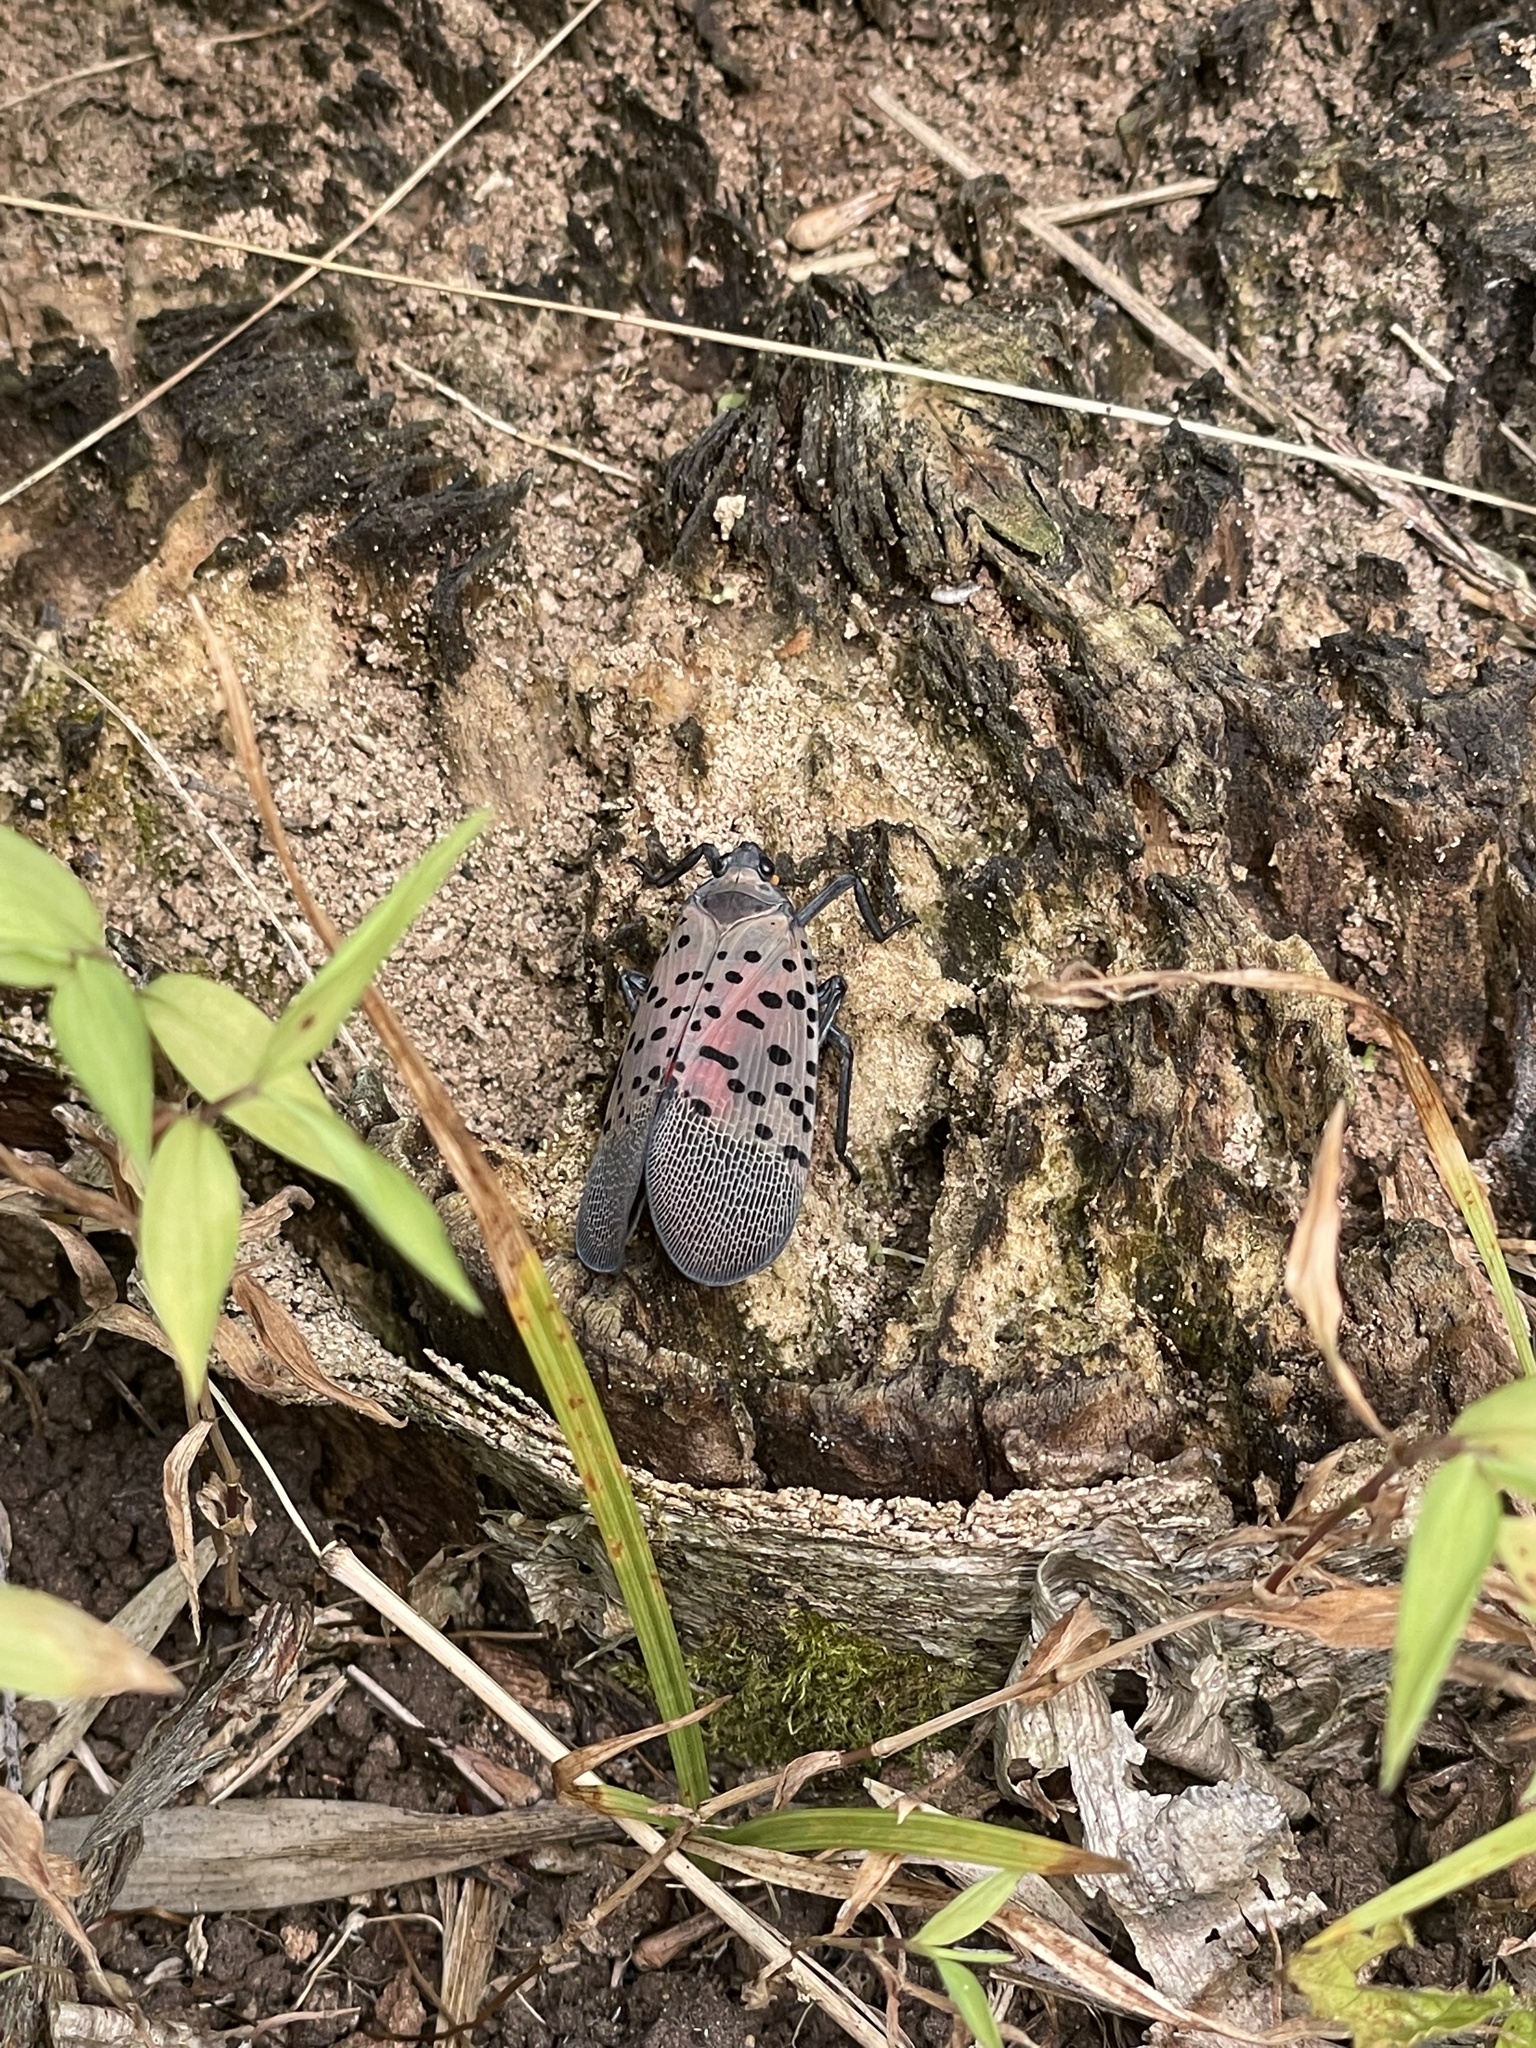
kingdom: Animalia
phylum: Arthropoda
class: Insecta
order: Hemiptera
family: Fulgoridae
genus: Lycorma
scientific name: Lycorma delicatula
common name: Spotted lanternfly
